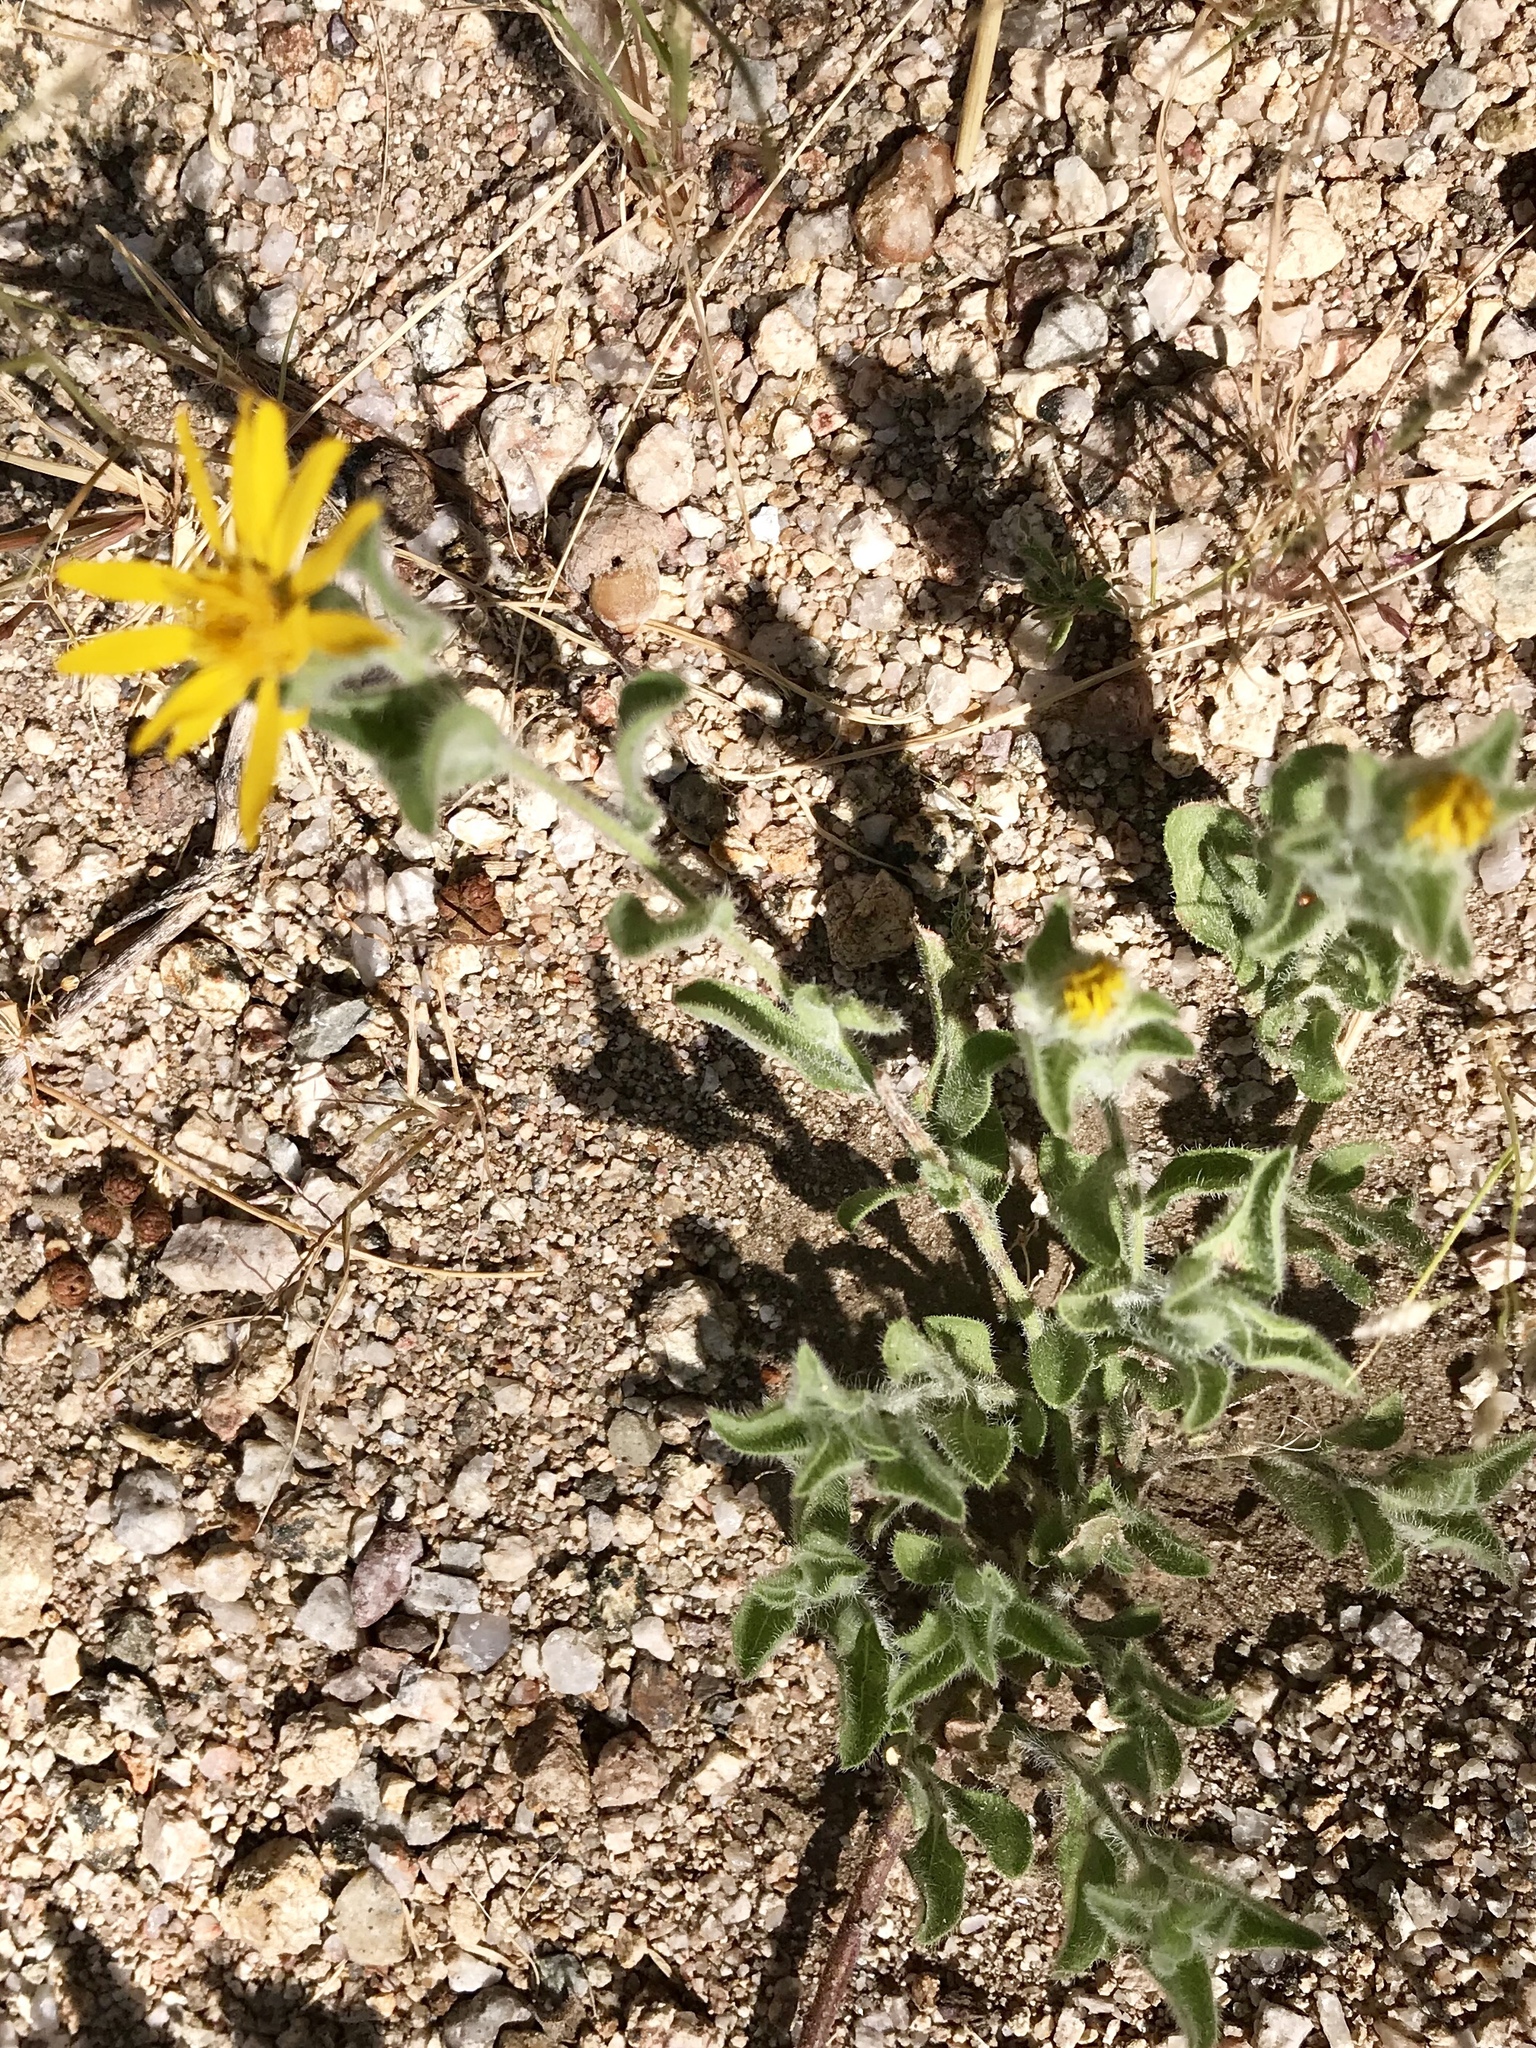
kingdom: Plantae
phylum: Tracheophyta
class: Magnoliopsida
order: Asterales
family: Asteraceae
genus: Heterotheca
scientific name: Heterotheca fulcrata
